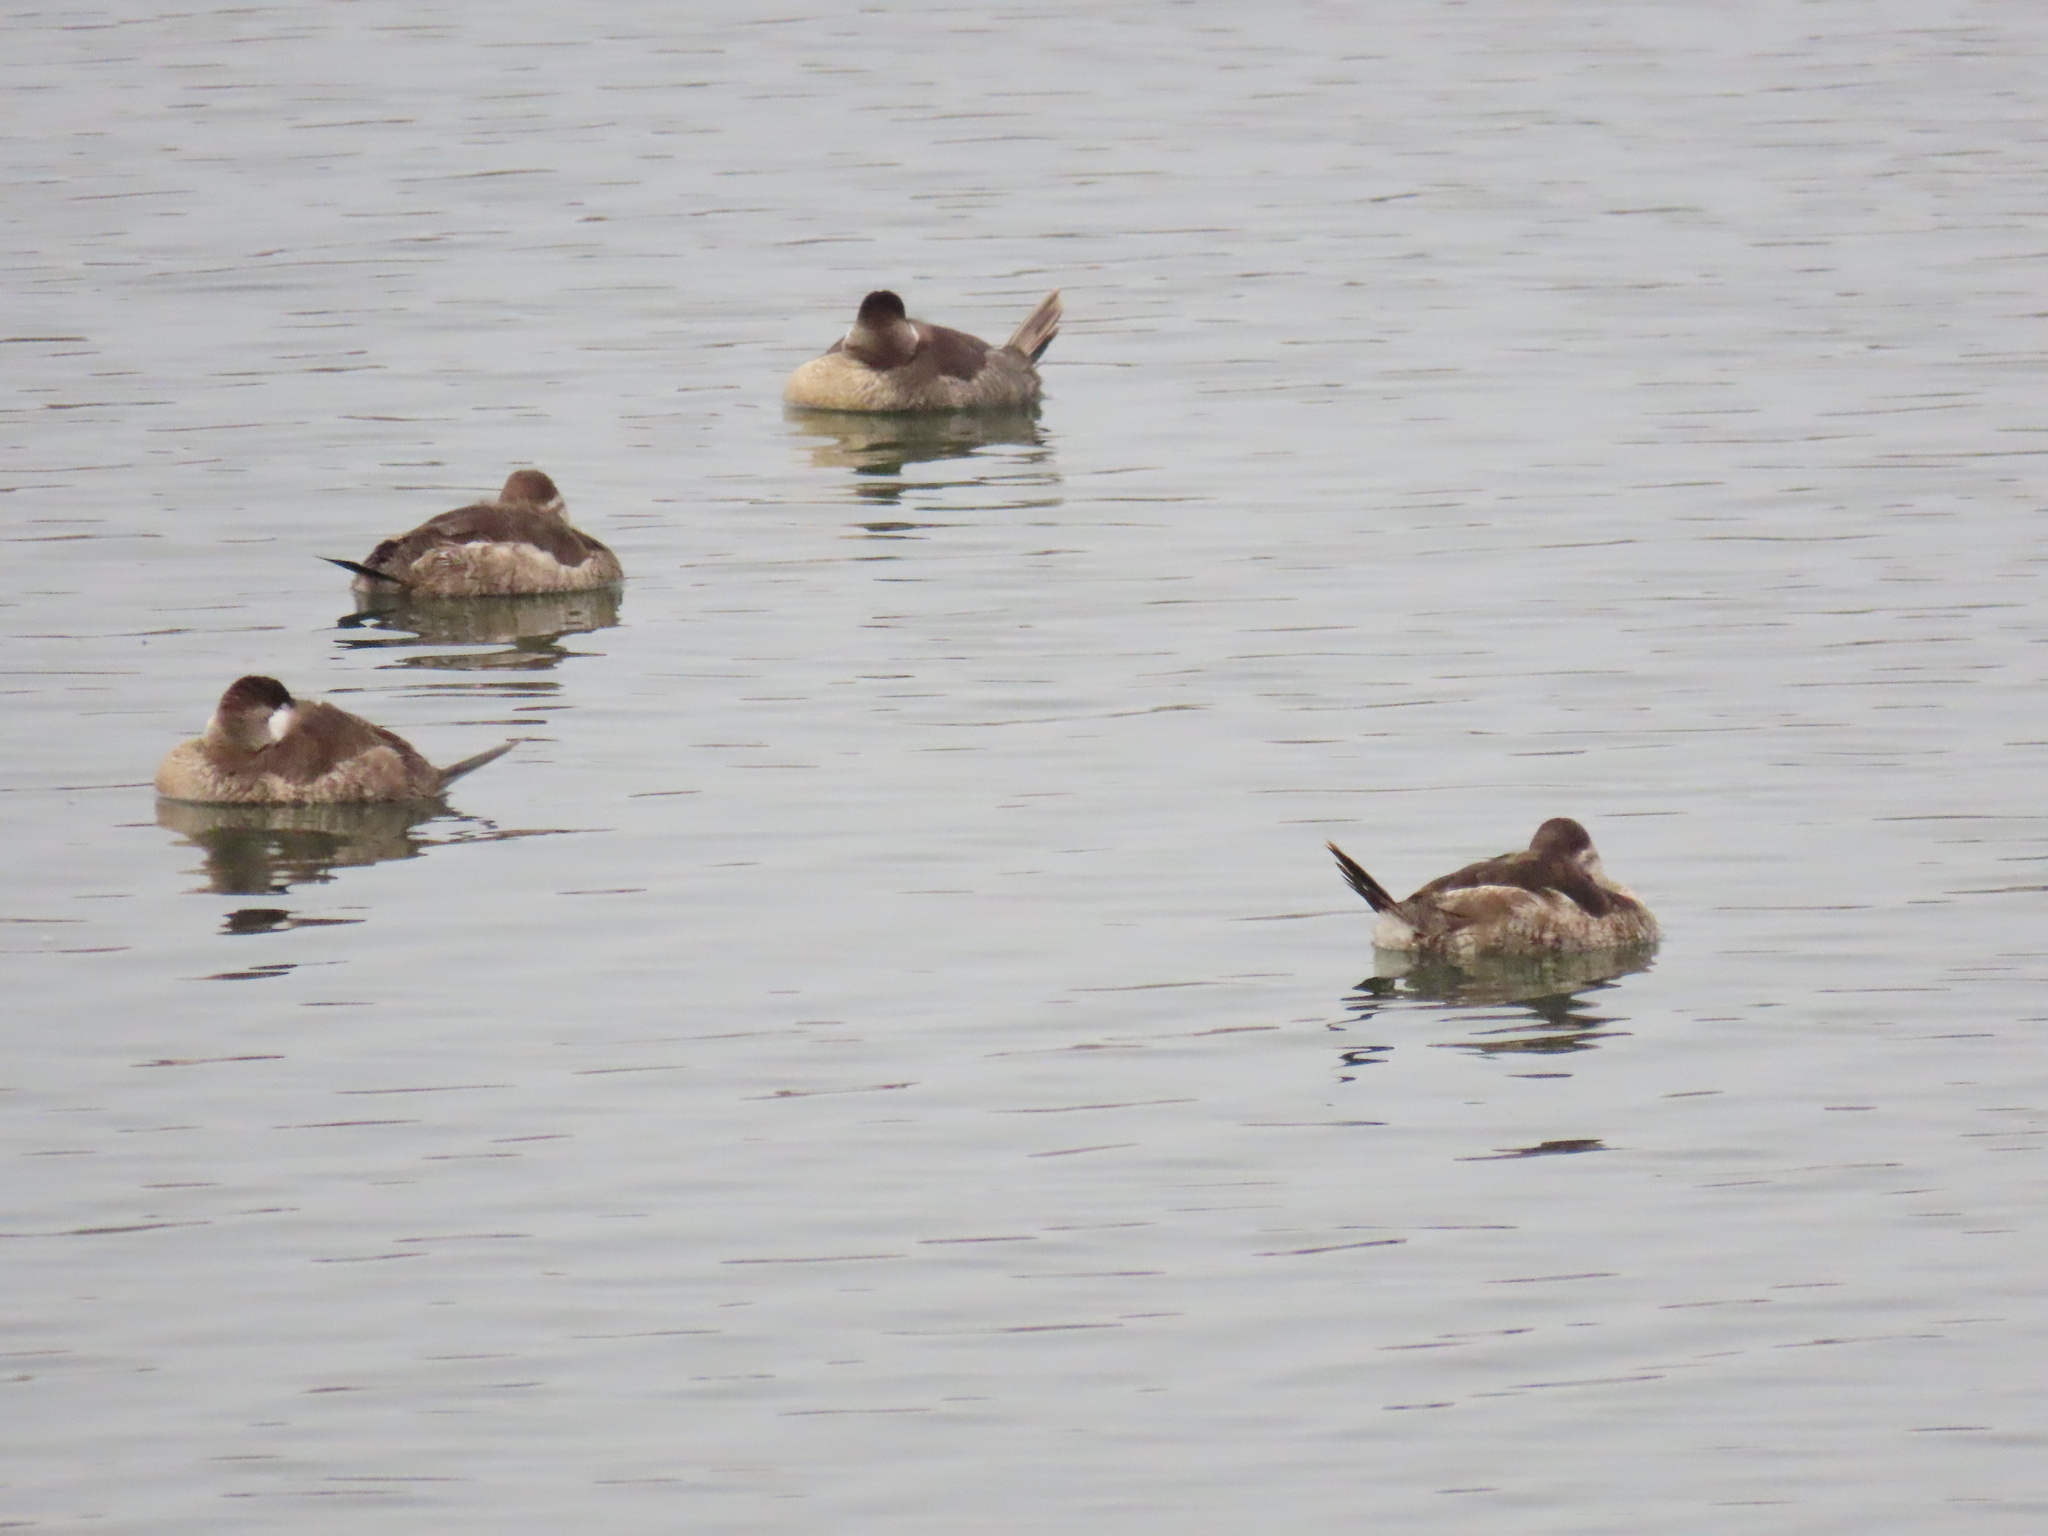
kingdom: Animalia
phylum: Chordata
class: Aves
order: Anseriformes
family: Anatidae
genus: Oxyura
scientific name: Oxyura jamaicensis
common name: Ruddy duck
